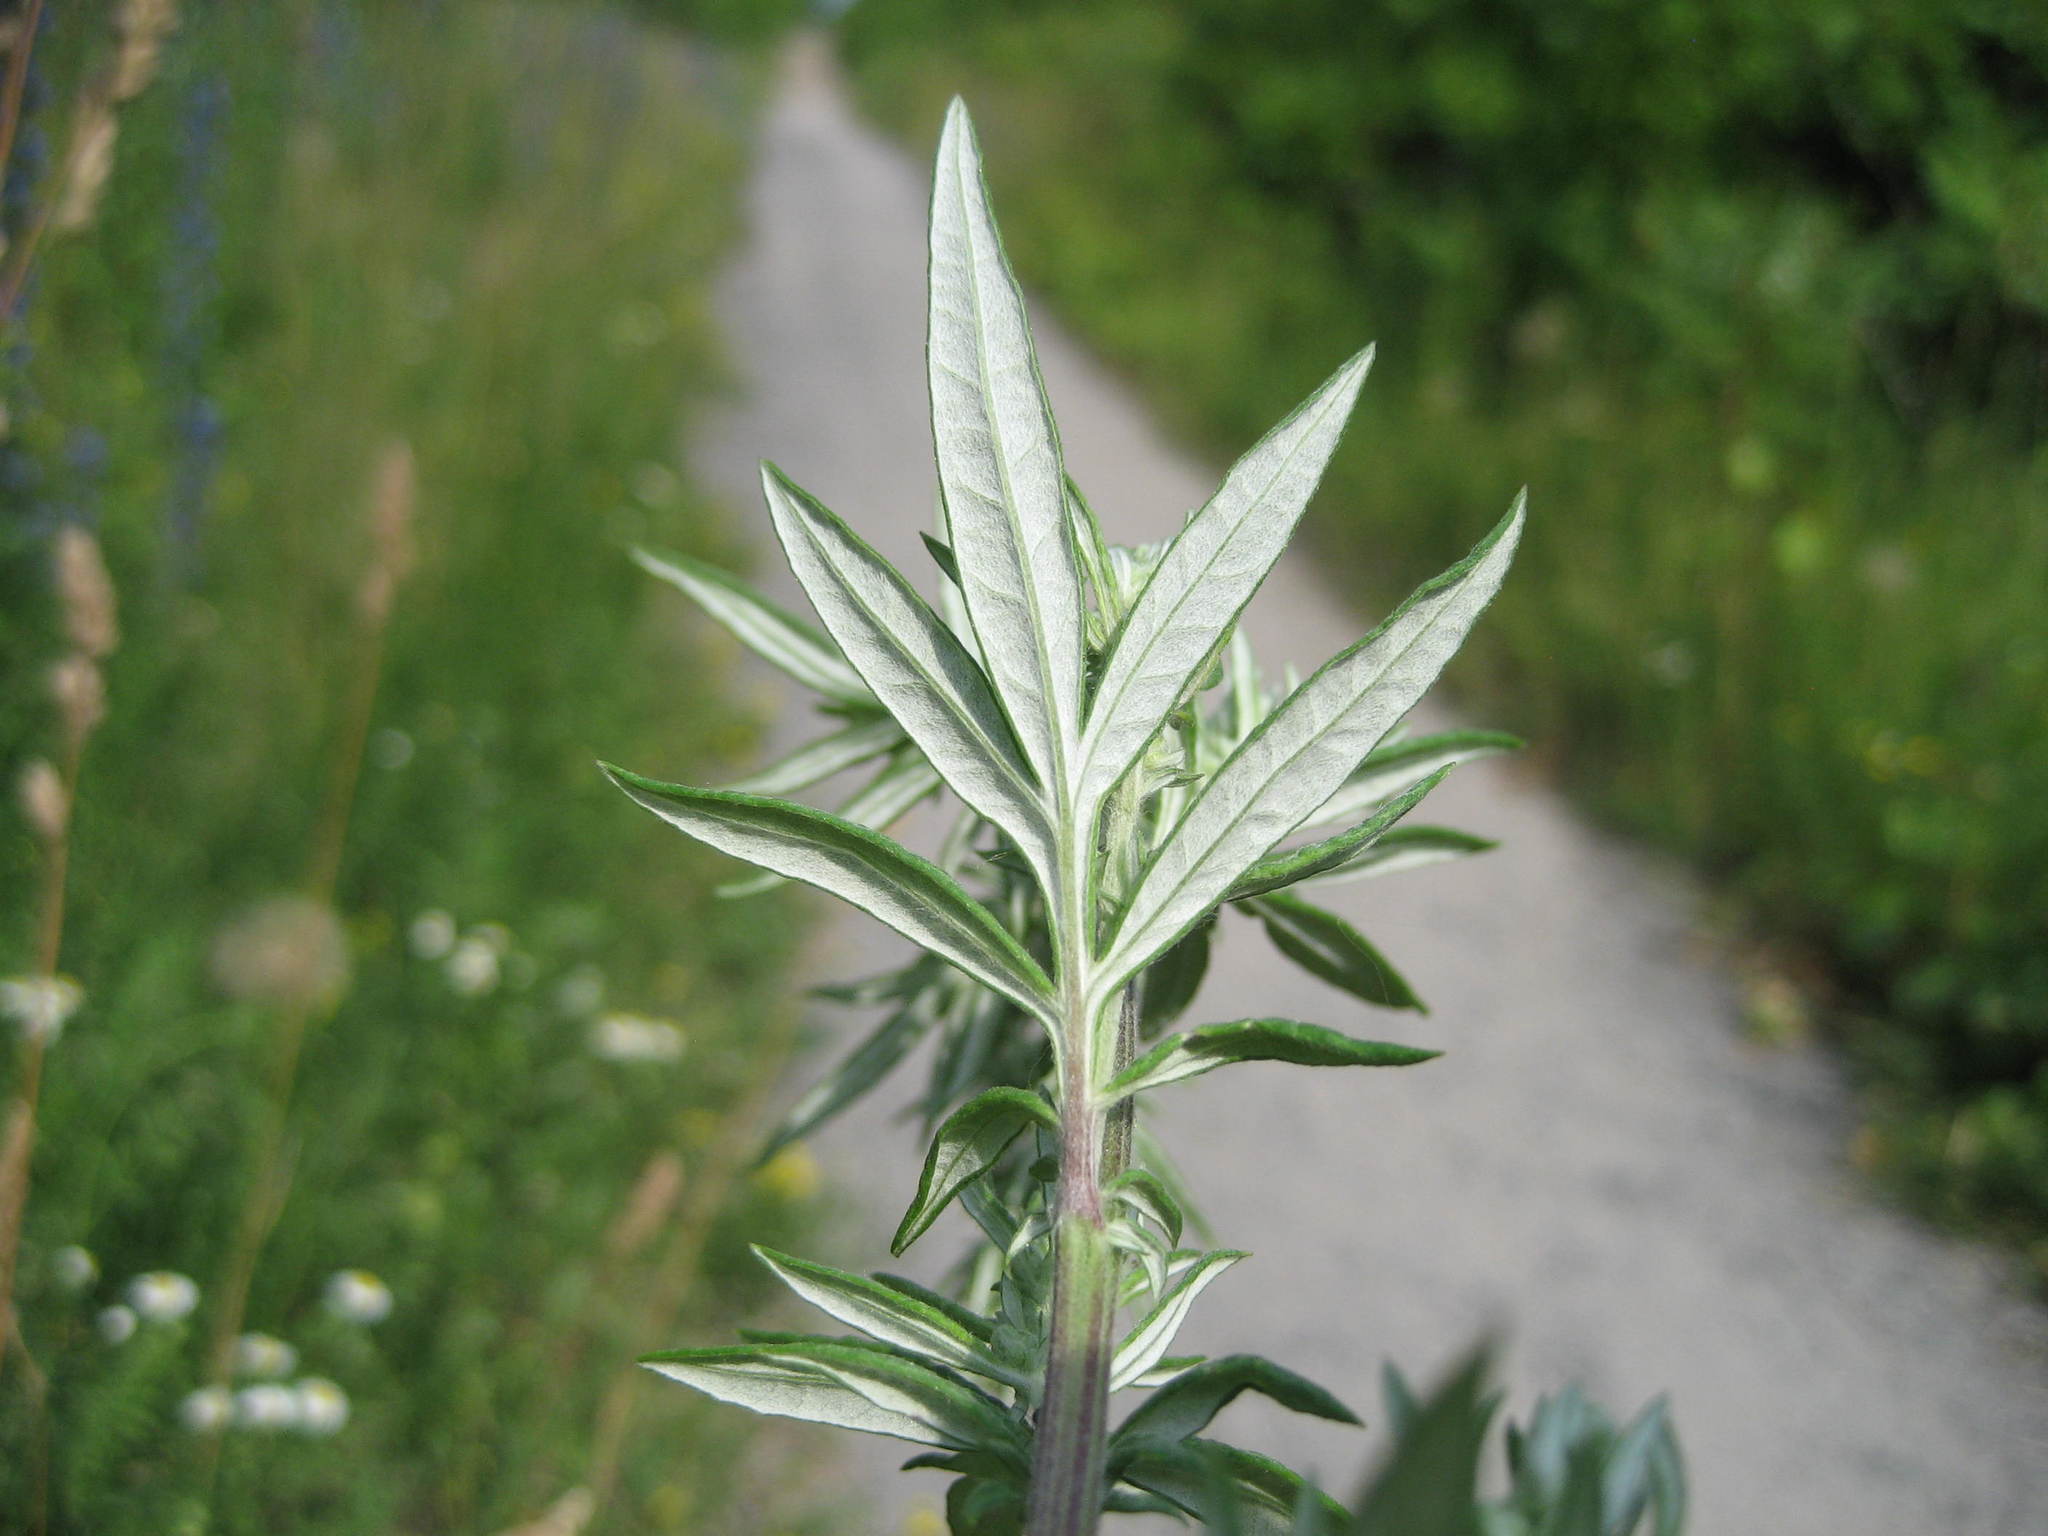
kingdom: Plantae
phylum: Tracheophyta
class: Magnoliopsida
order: Asterales
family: Asteraceae
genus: Artemisia
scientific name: Artemisia vulgaris
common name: Mugwort
